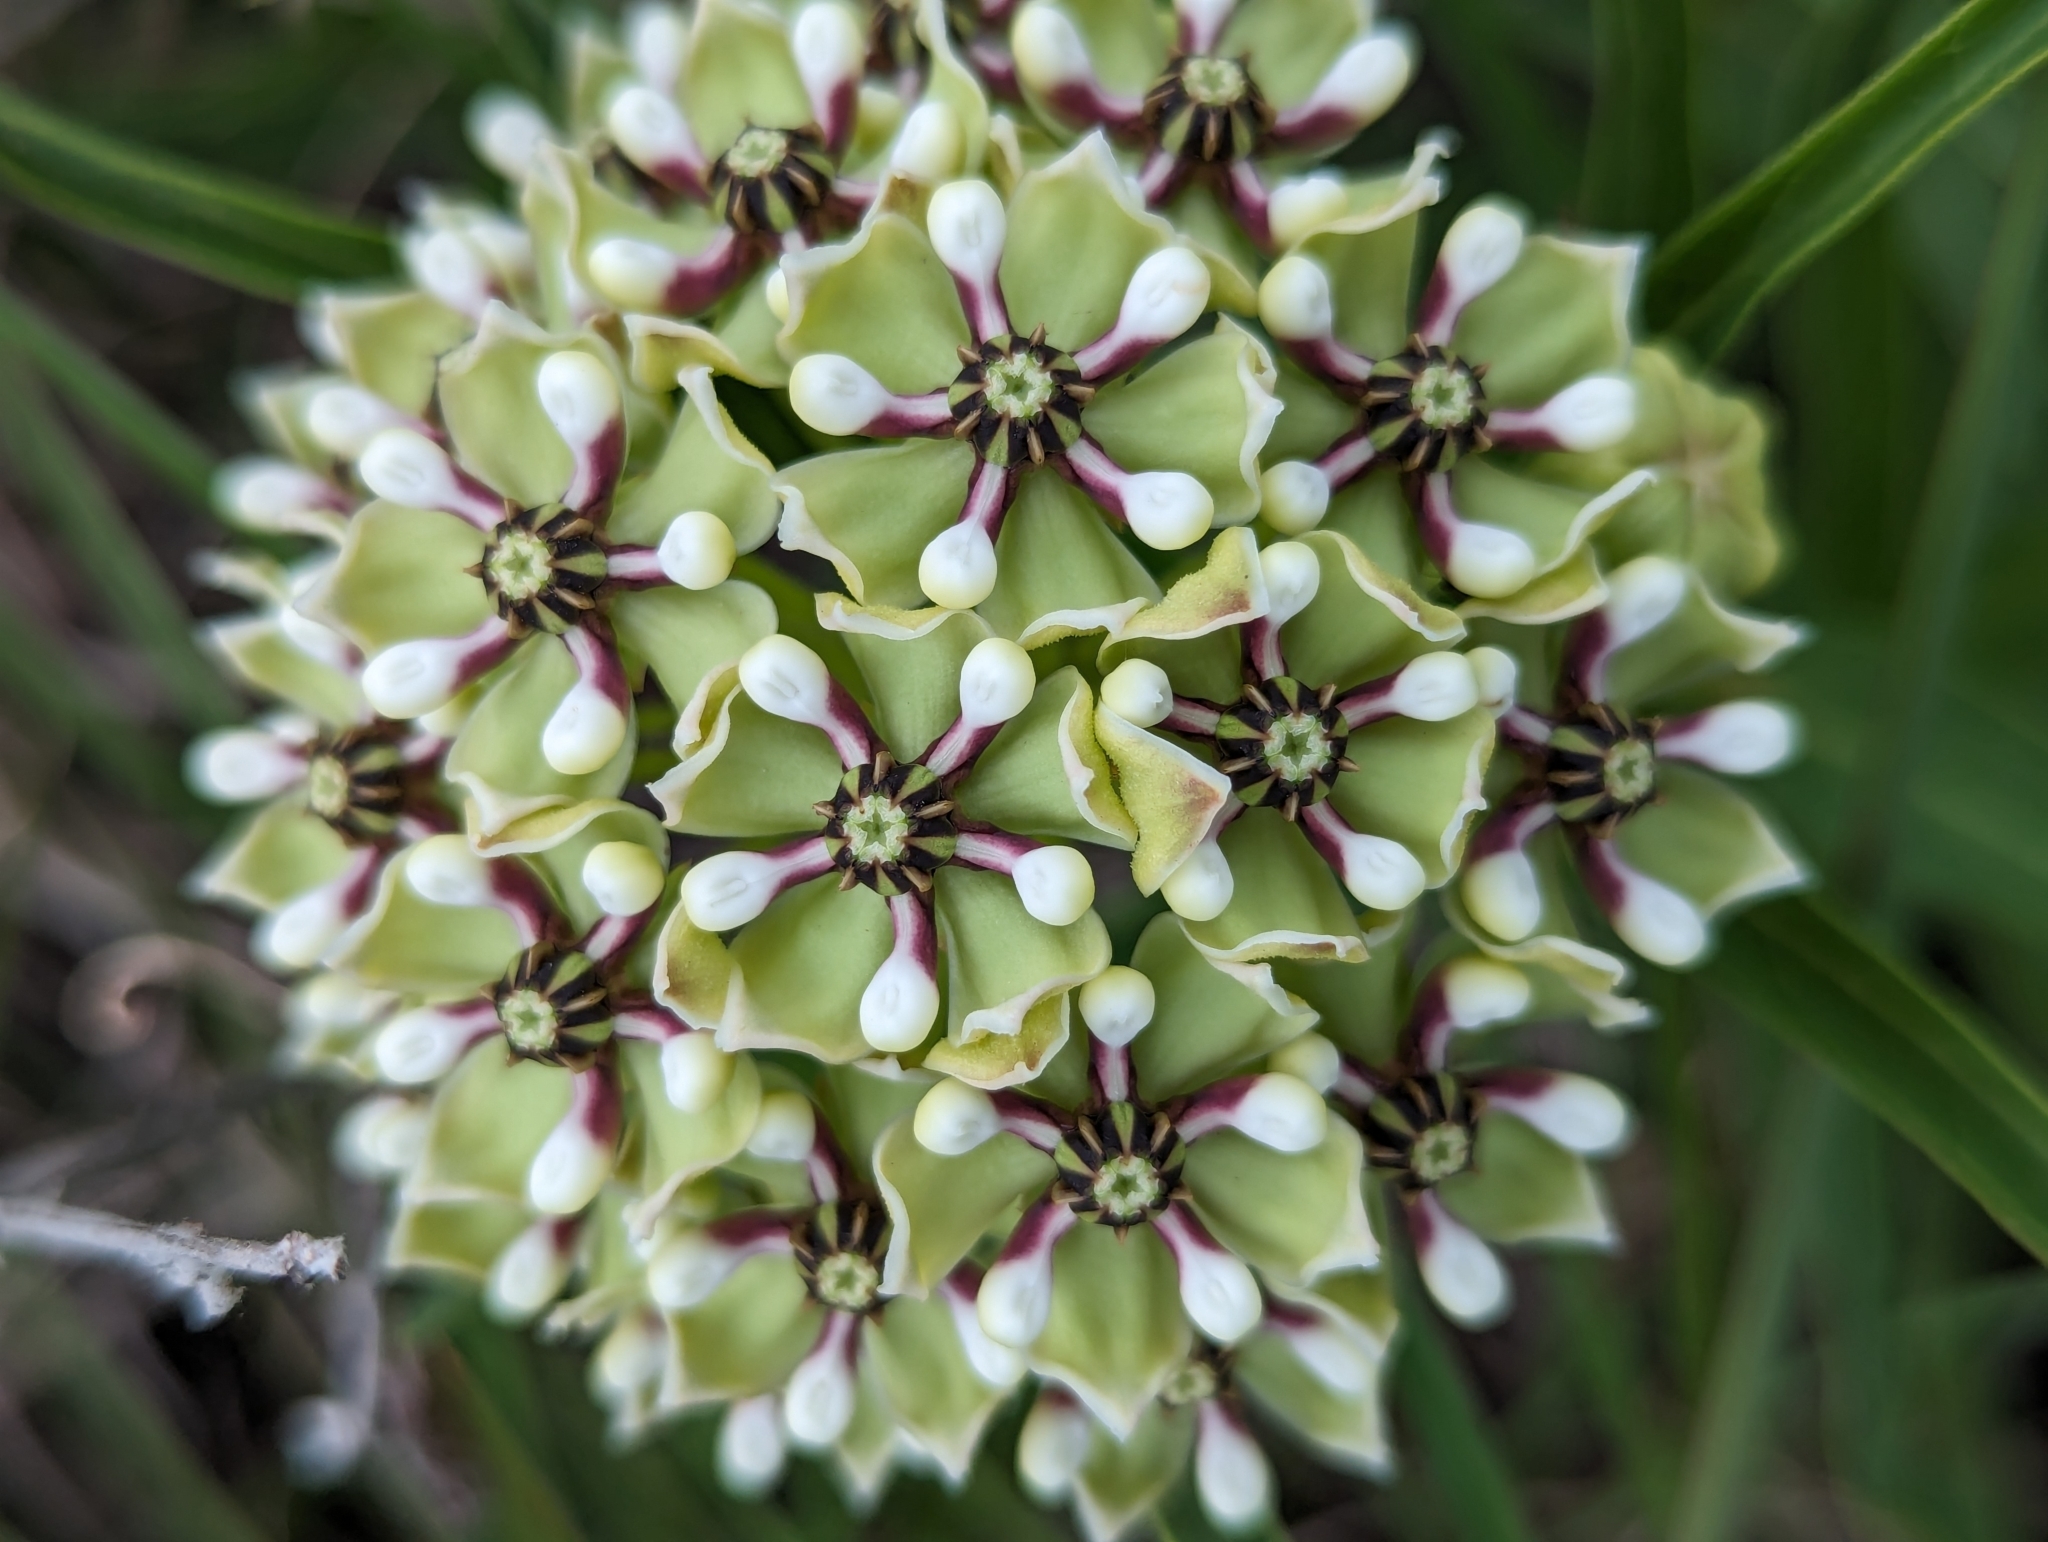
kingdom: Plantae
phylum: Tracheophyta
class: Magnoliopsida
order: Gentianales
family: Apocynaceae
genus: Asclepias
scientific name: Asclepias asperula
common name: Antelope horns
